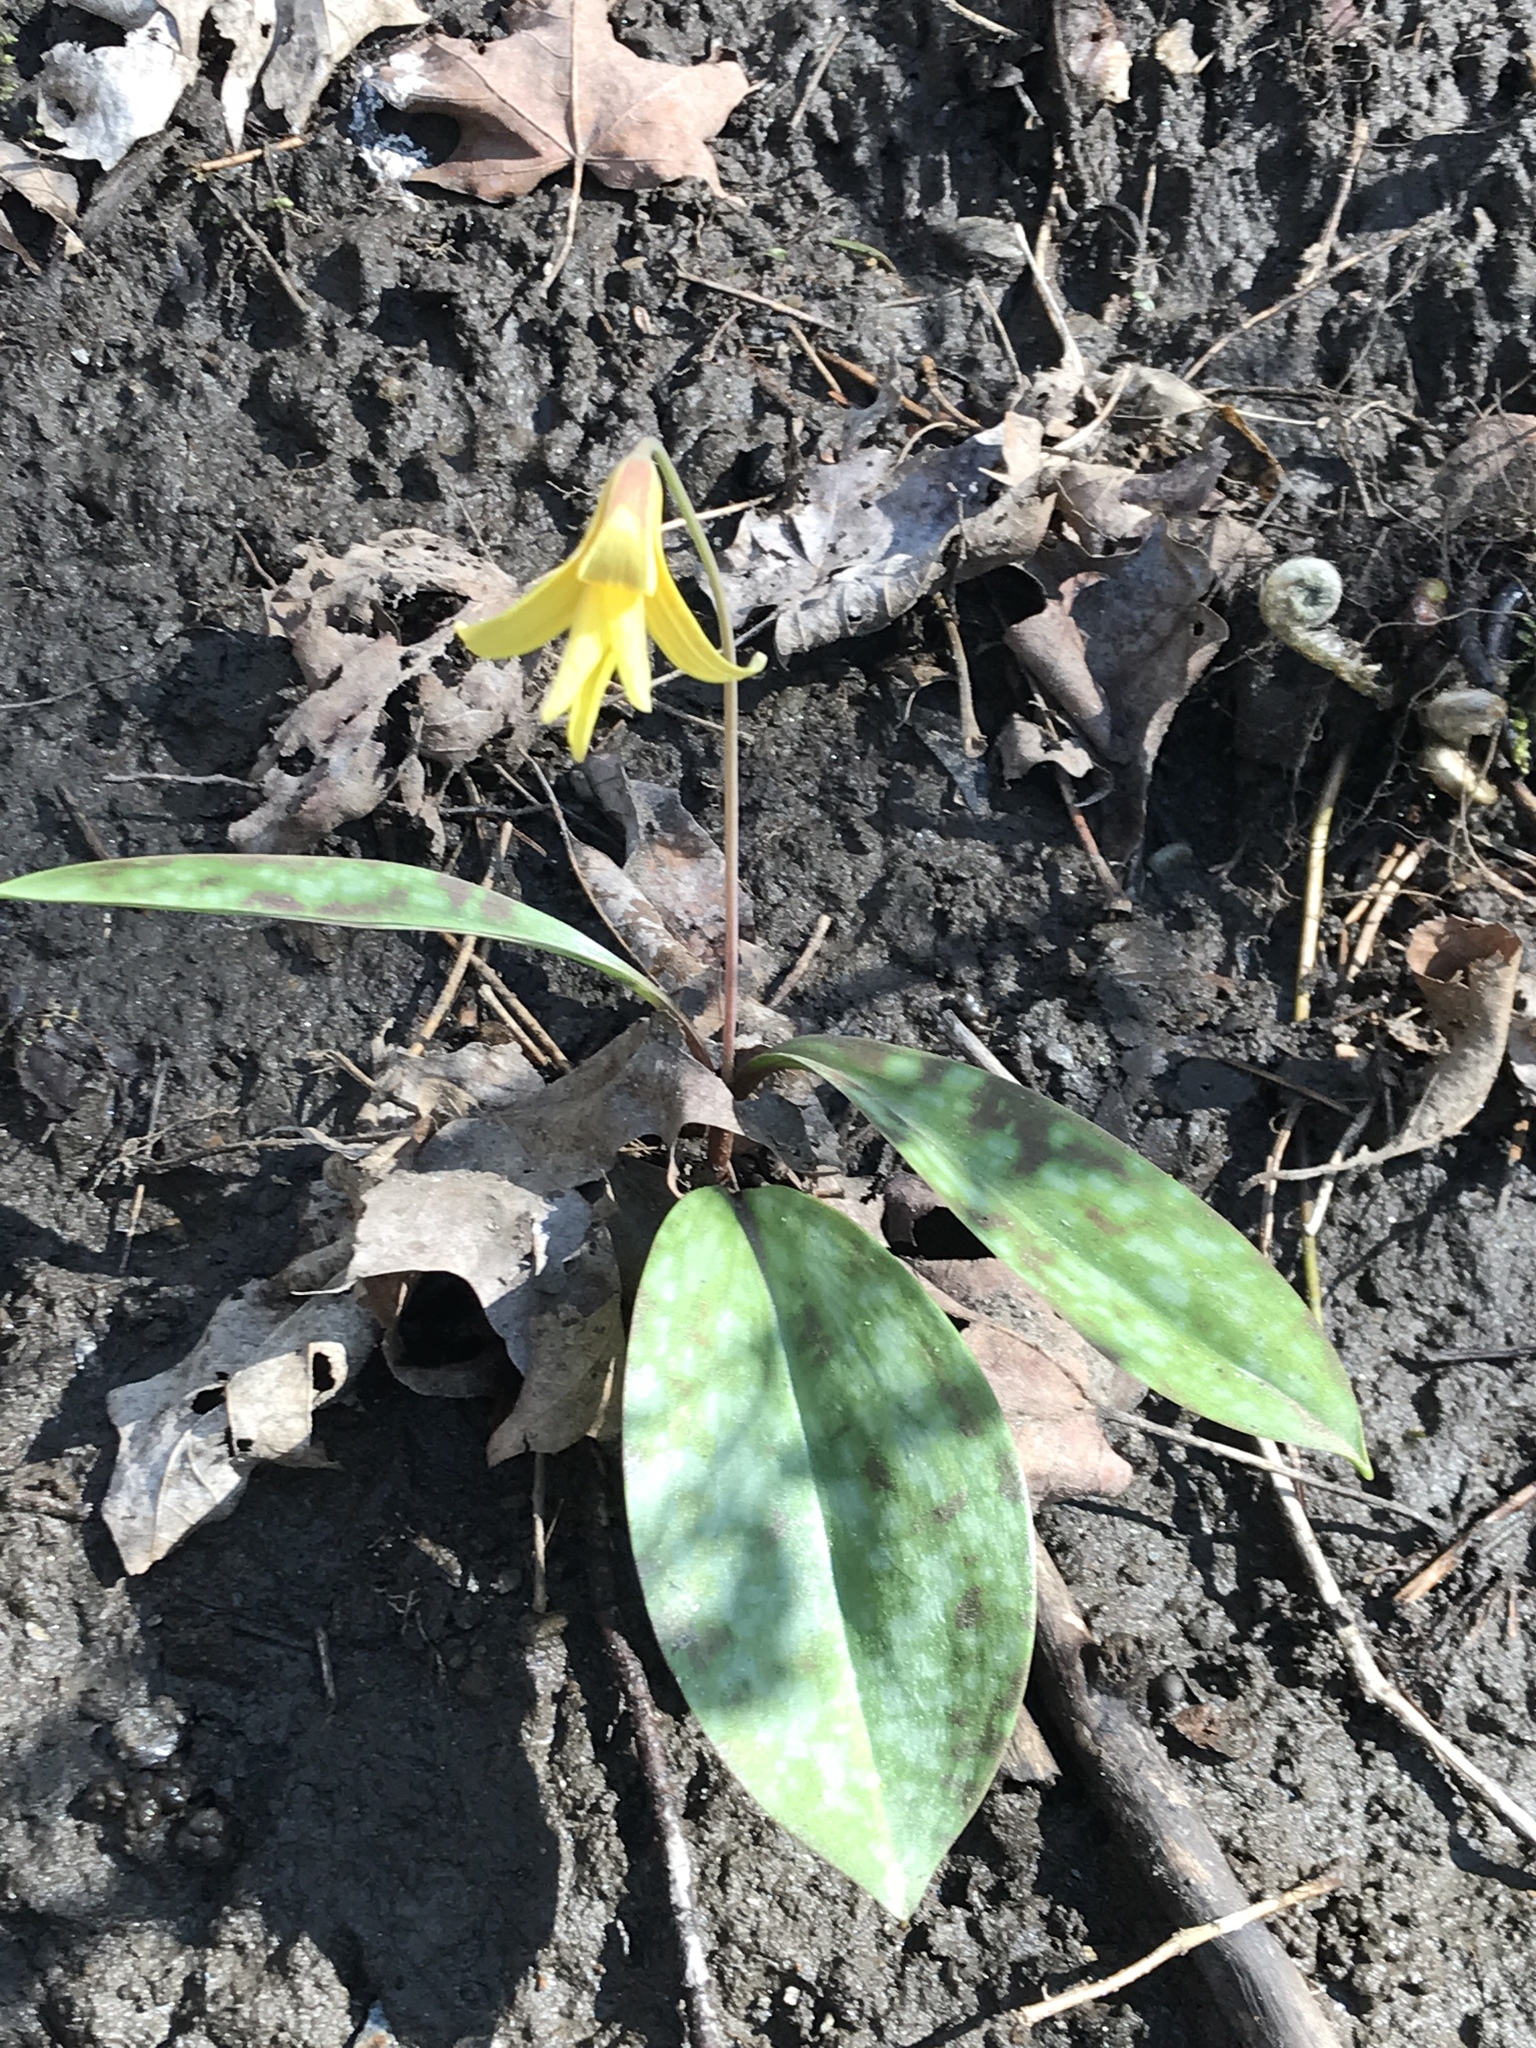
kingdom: Plantae
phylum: Tracheophyta
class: Liliopsida
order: Liliales
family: Liliaceae
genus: Erythronium
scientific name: Erythronium americanum
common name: Yellow adder's-tongue
